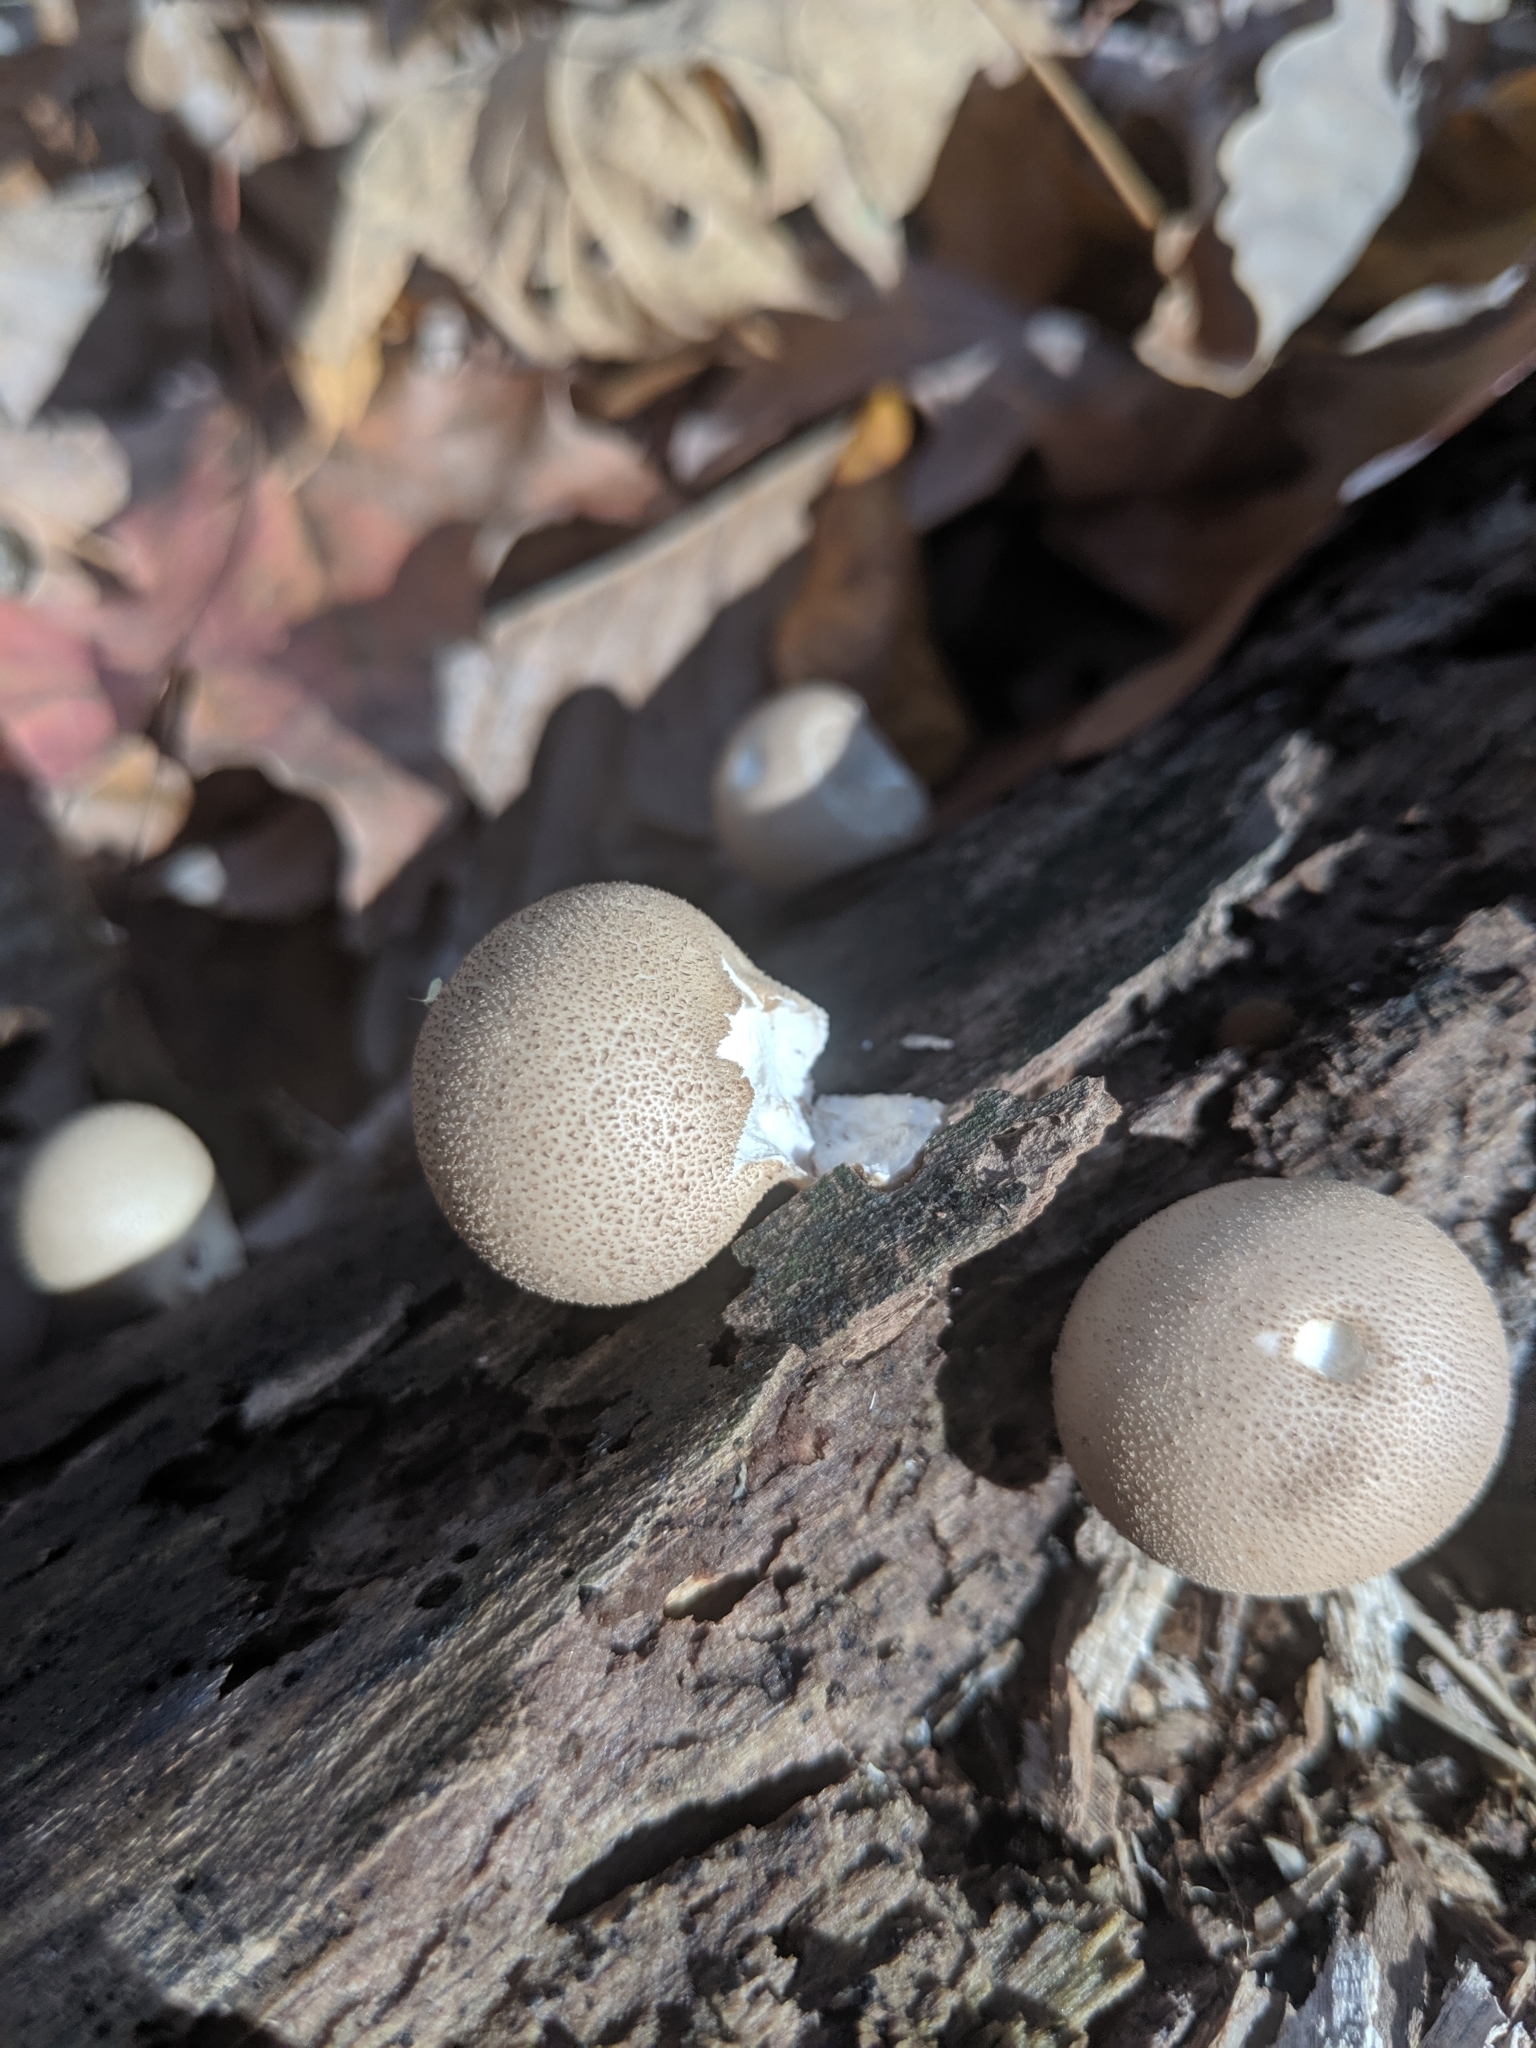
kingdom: Fungi
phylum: Basidiomycota
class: Agaricomycetes
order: Agaricales
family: Lycoperdaceae
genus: Apioperdon
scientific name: Apioperdon pyriforme
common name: Pear-shaped puffball
